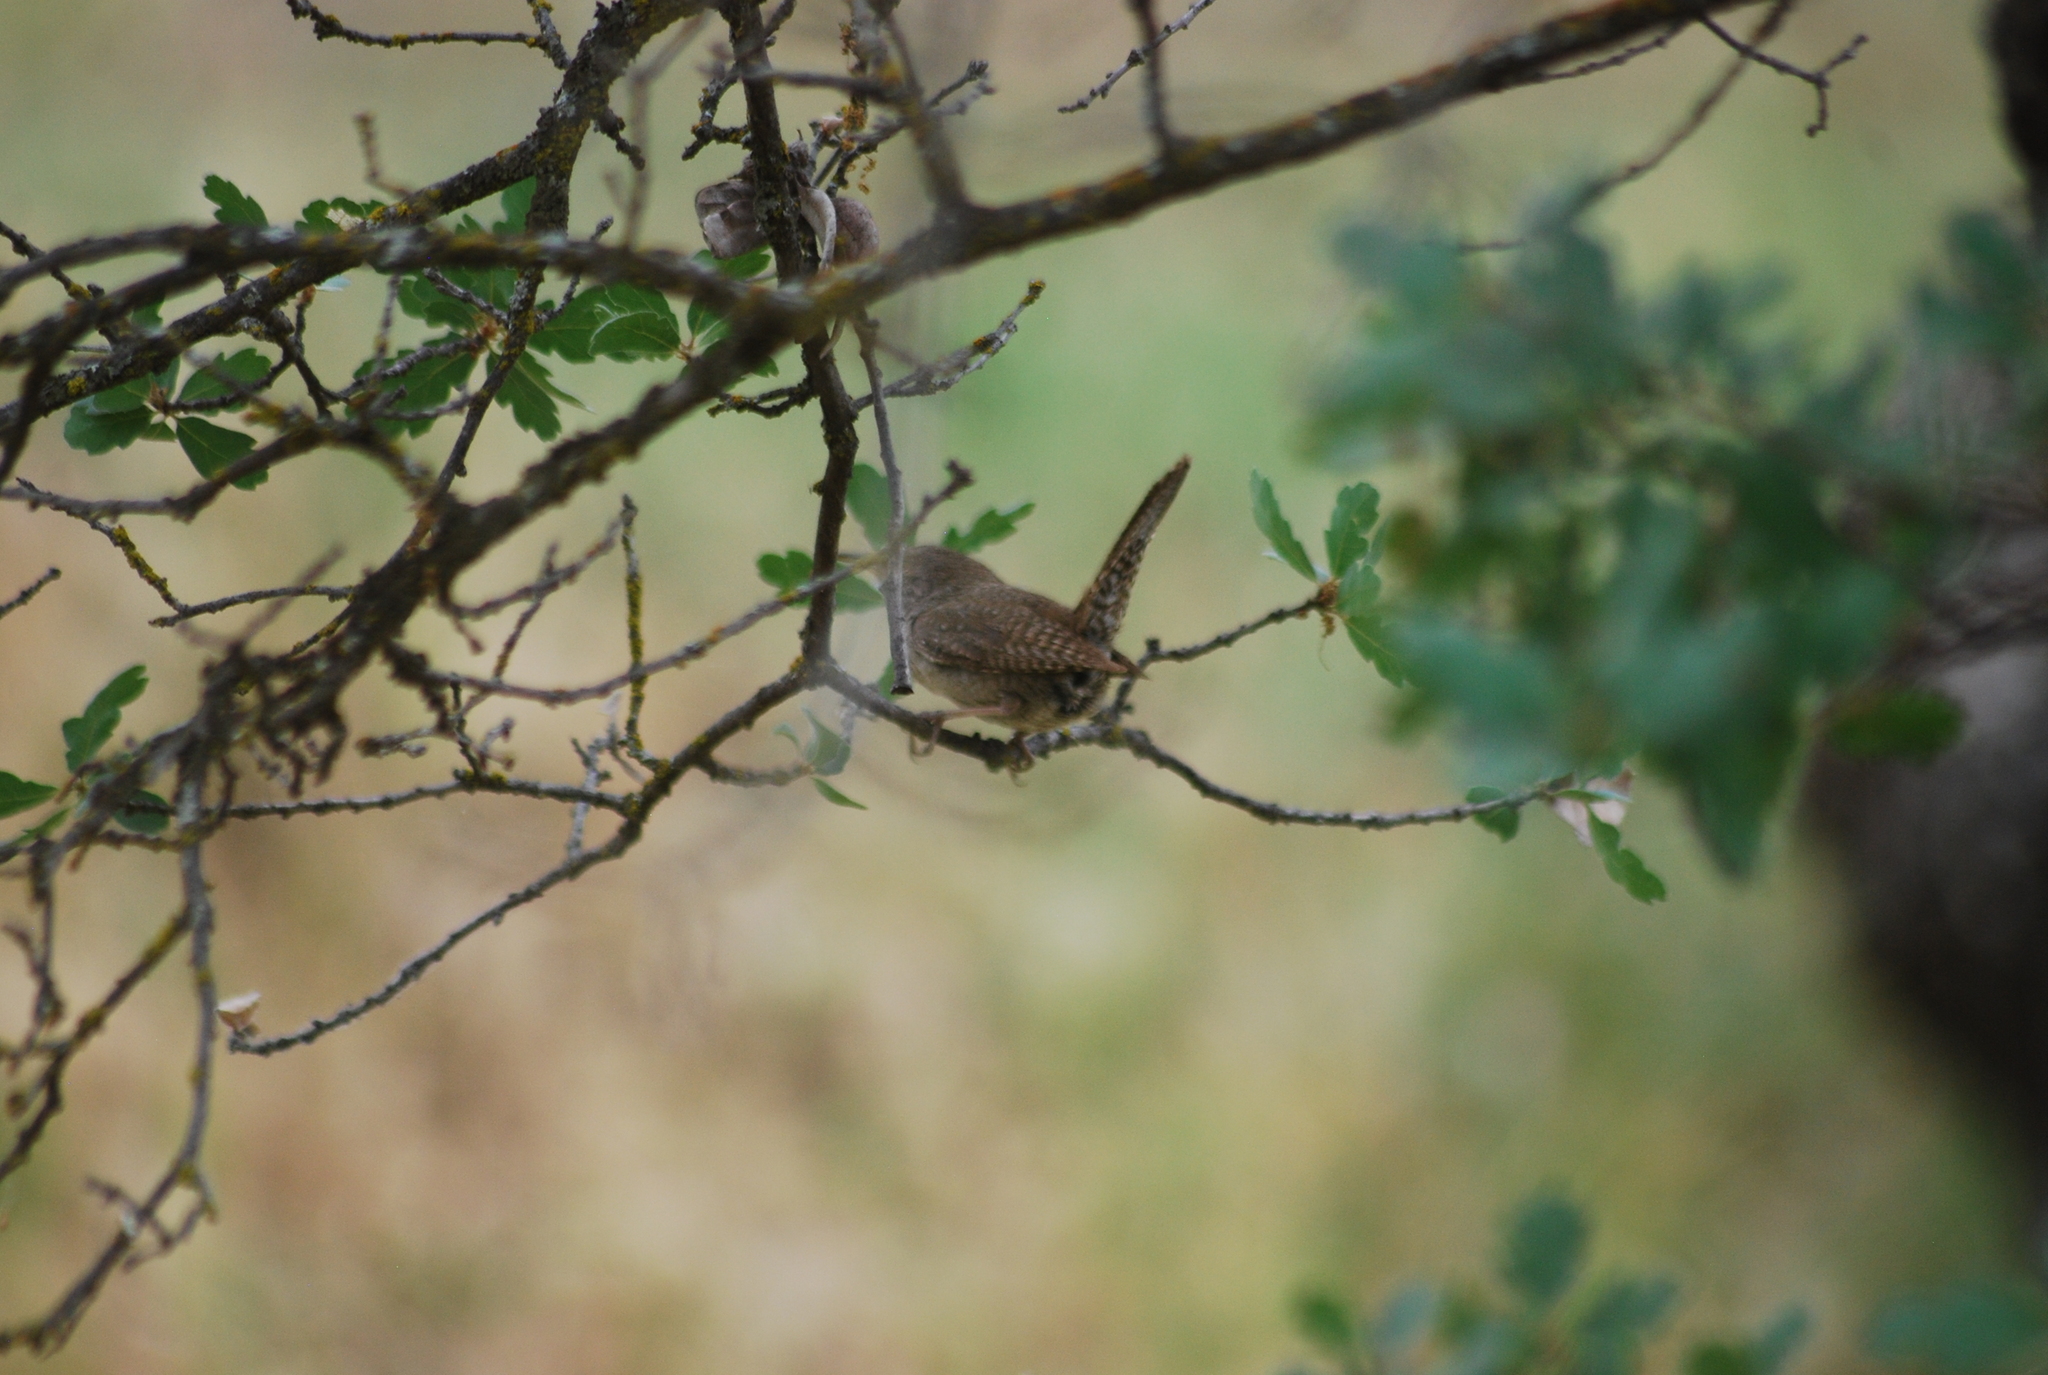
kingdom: Animalia
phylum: Chordata
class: Aves
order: Passeriformes
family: Troglodytidae
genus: Troglodytes
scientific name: Troglodytes aedon
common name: House wren
